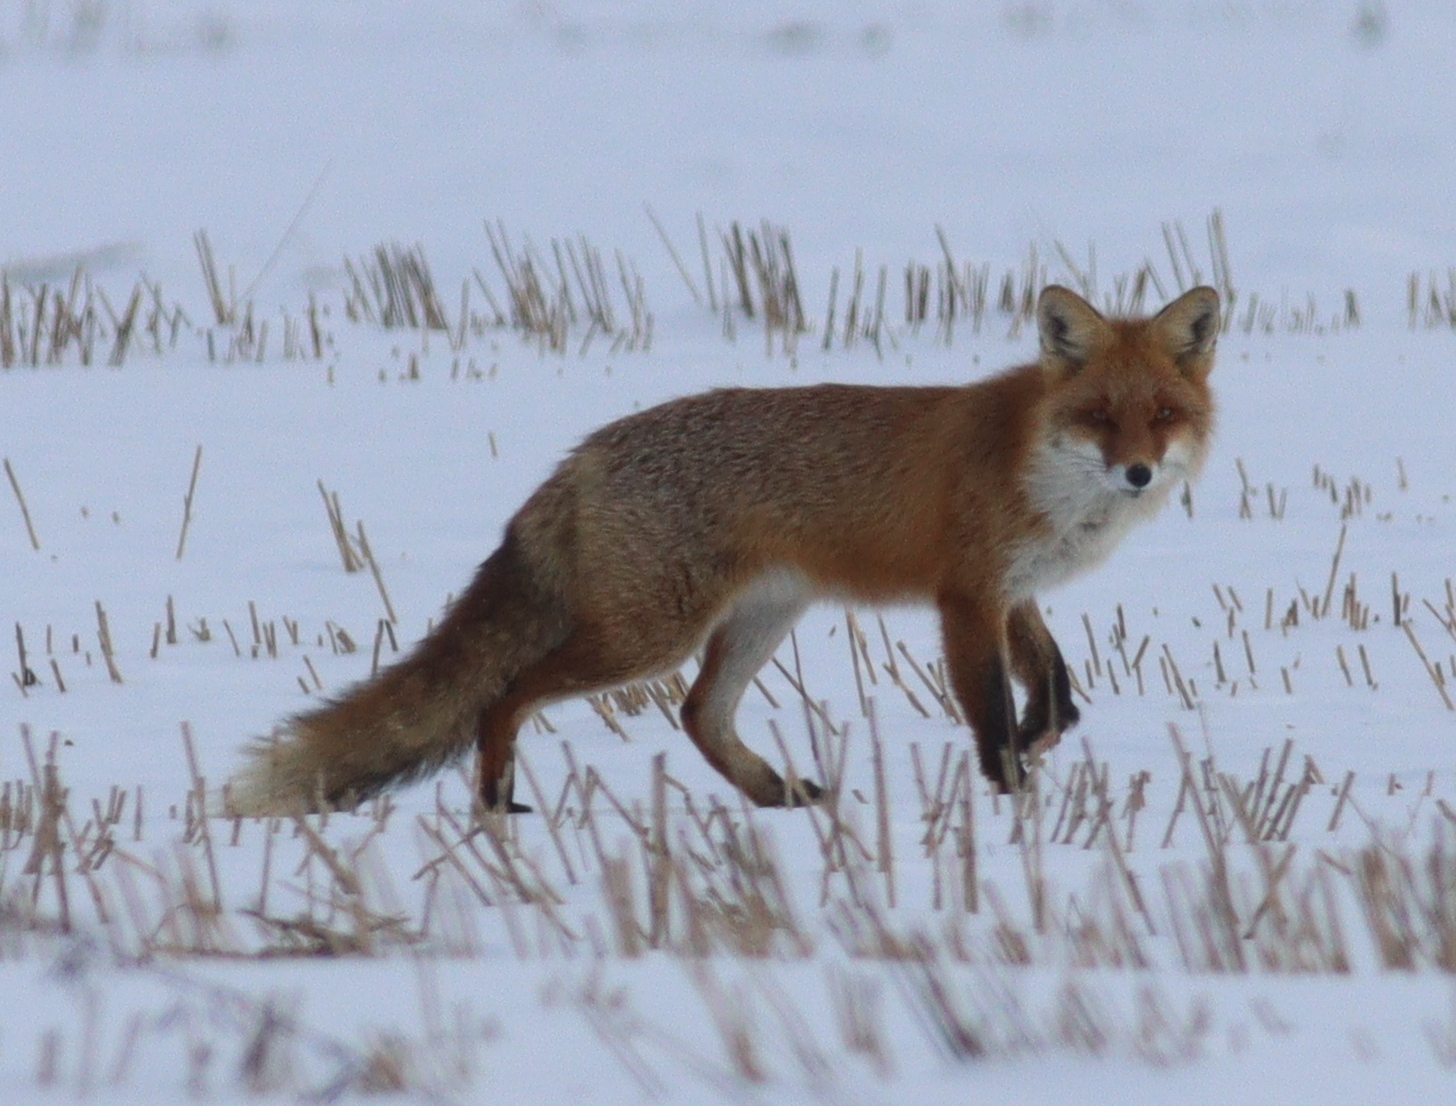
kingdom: Animalia
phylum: Chordata
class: Mammalia
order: Carnivora
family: Canidae
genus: Vulpes
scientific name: Vulpes vulpes
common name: Red fox
